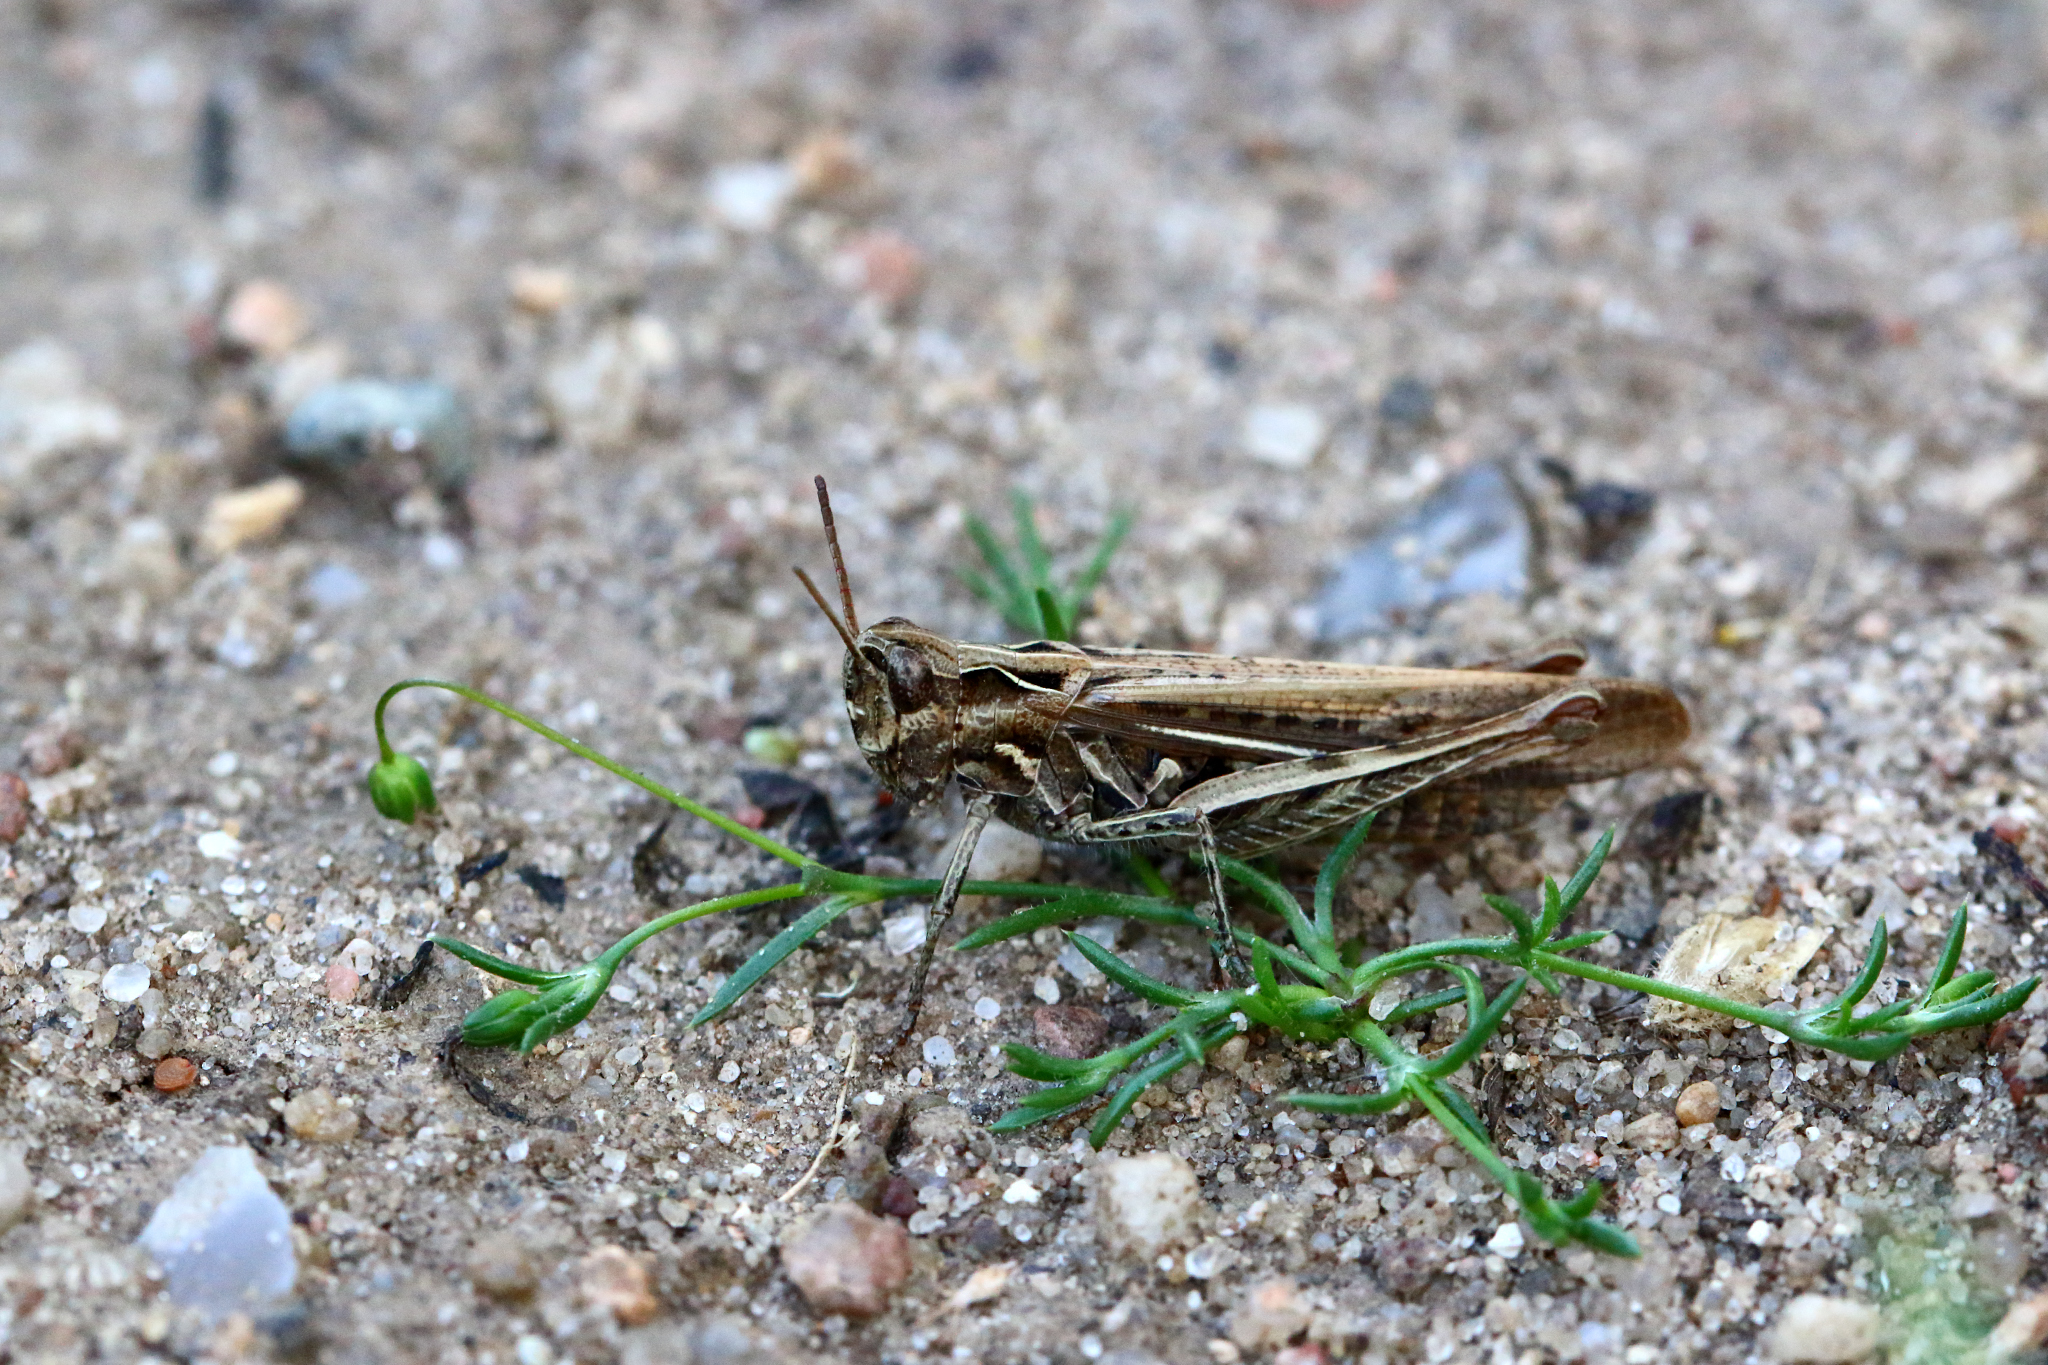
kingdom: Animalia
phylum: Arthropoda
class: Insecta
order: Orthoptera
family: Acrididae
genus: Chorthippus
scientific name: Chorthippus brunneus
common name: Field grasshopper
